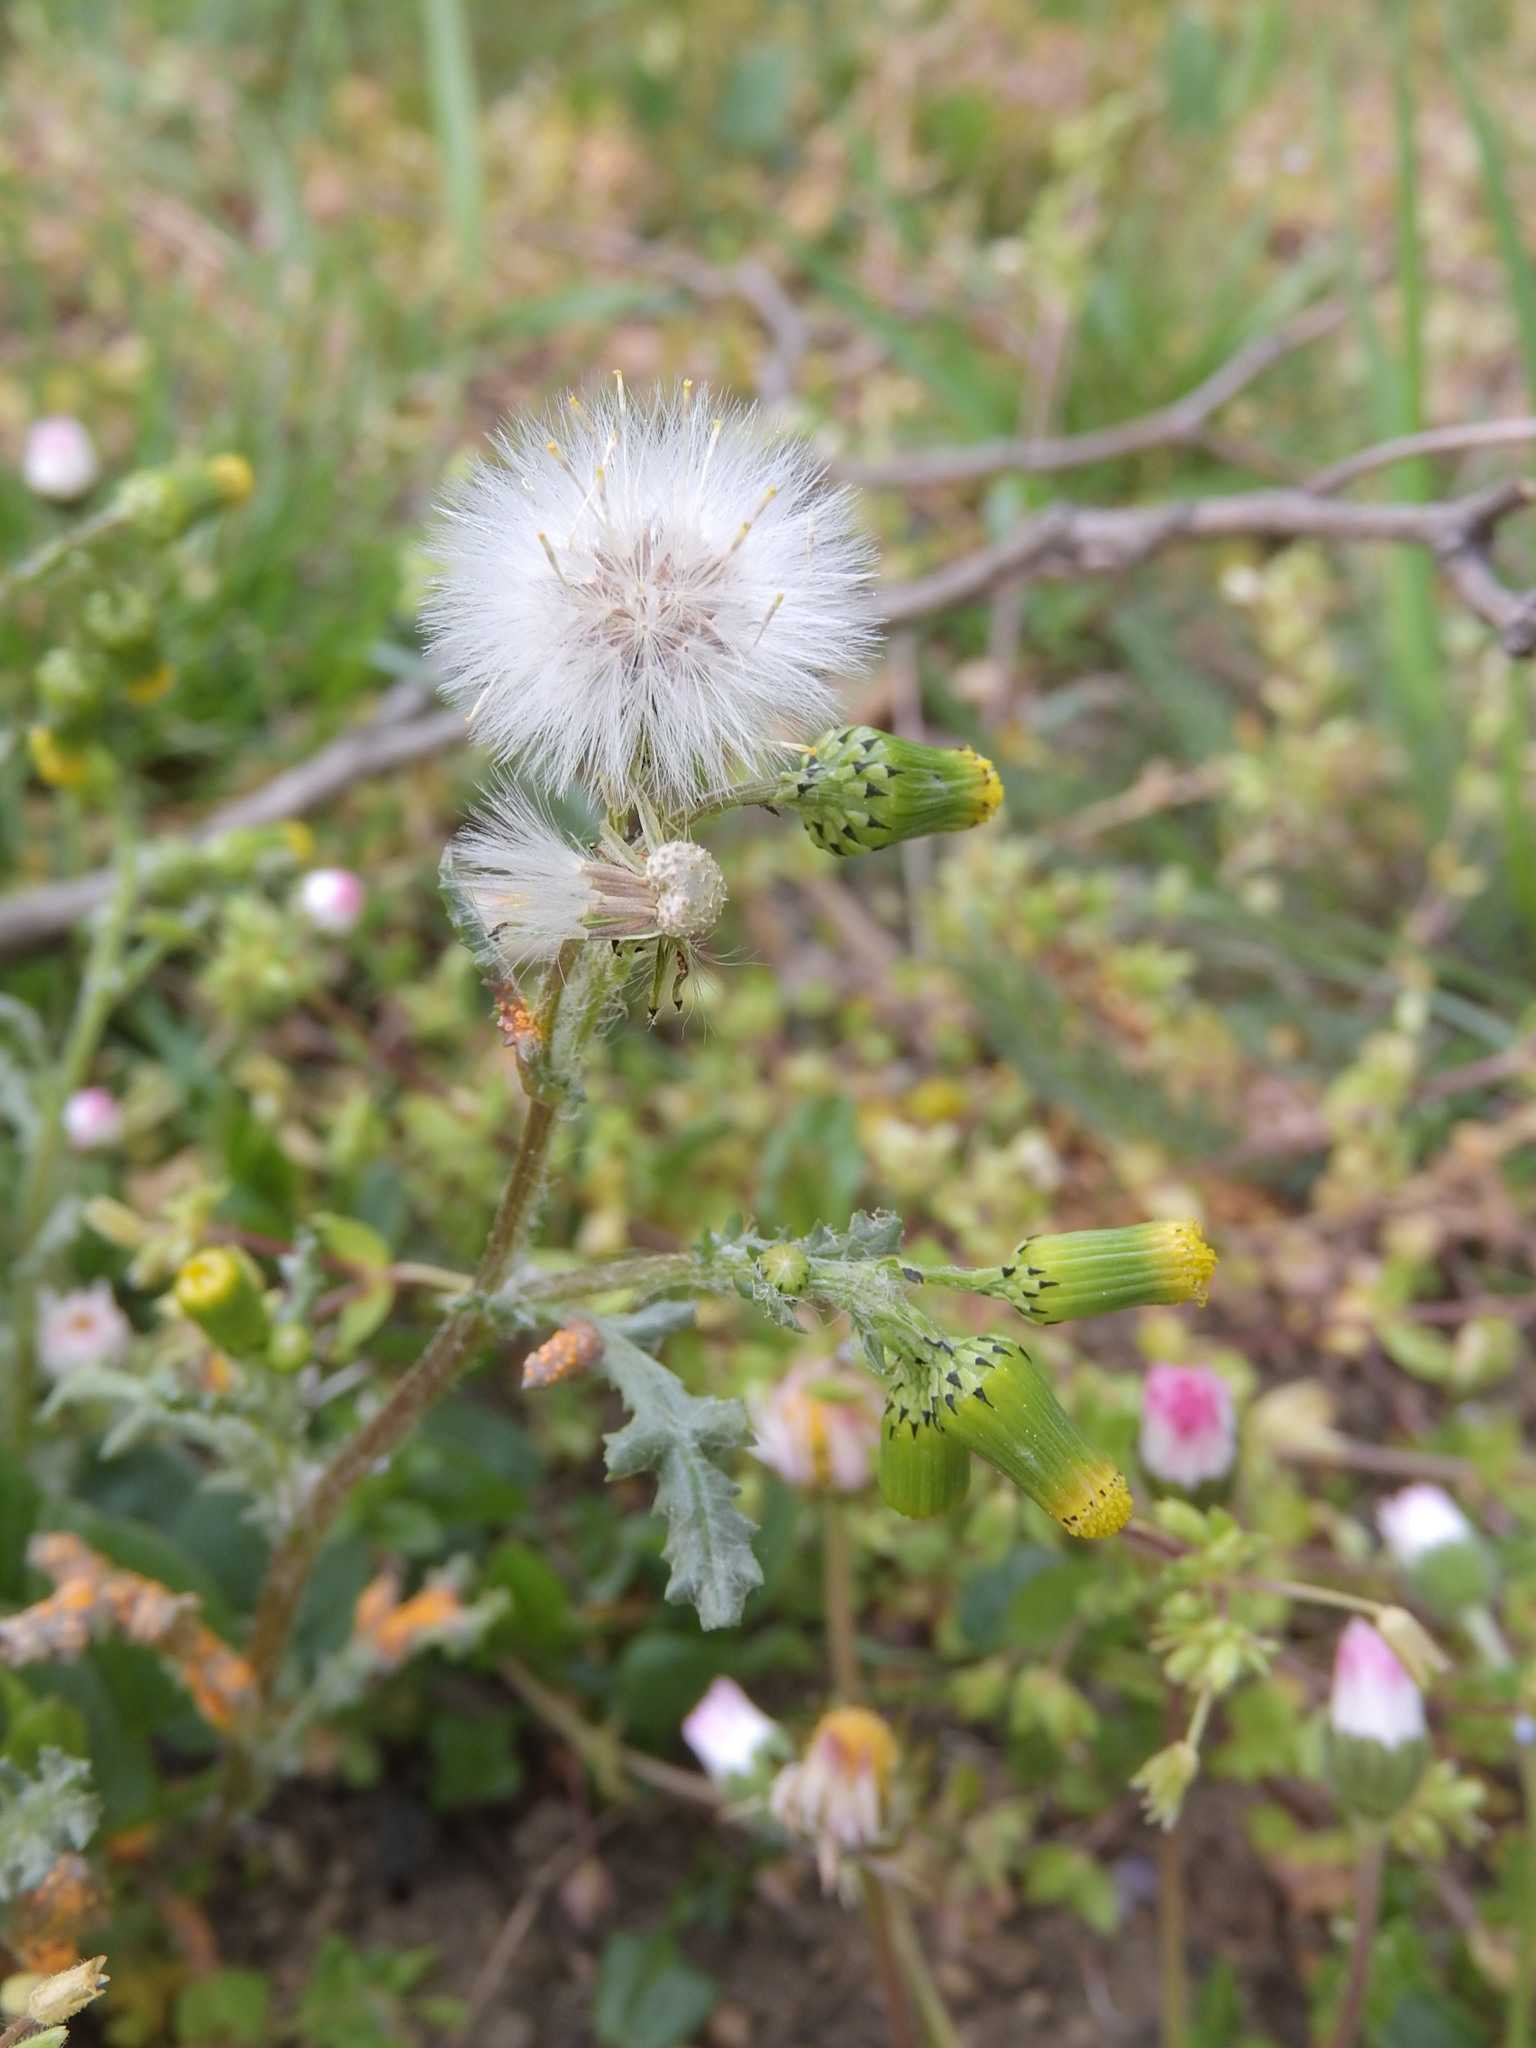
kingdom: Plantae
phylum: Tracheophyta
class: Magnoliopsida
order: Asterales
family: Asteraceae
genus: Senecio
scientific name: Senecio vulgaris
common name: Old-man-in-the-spring
